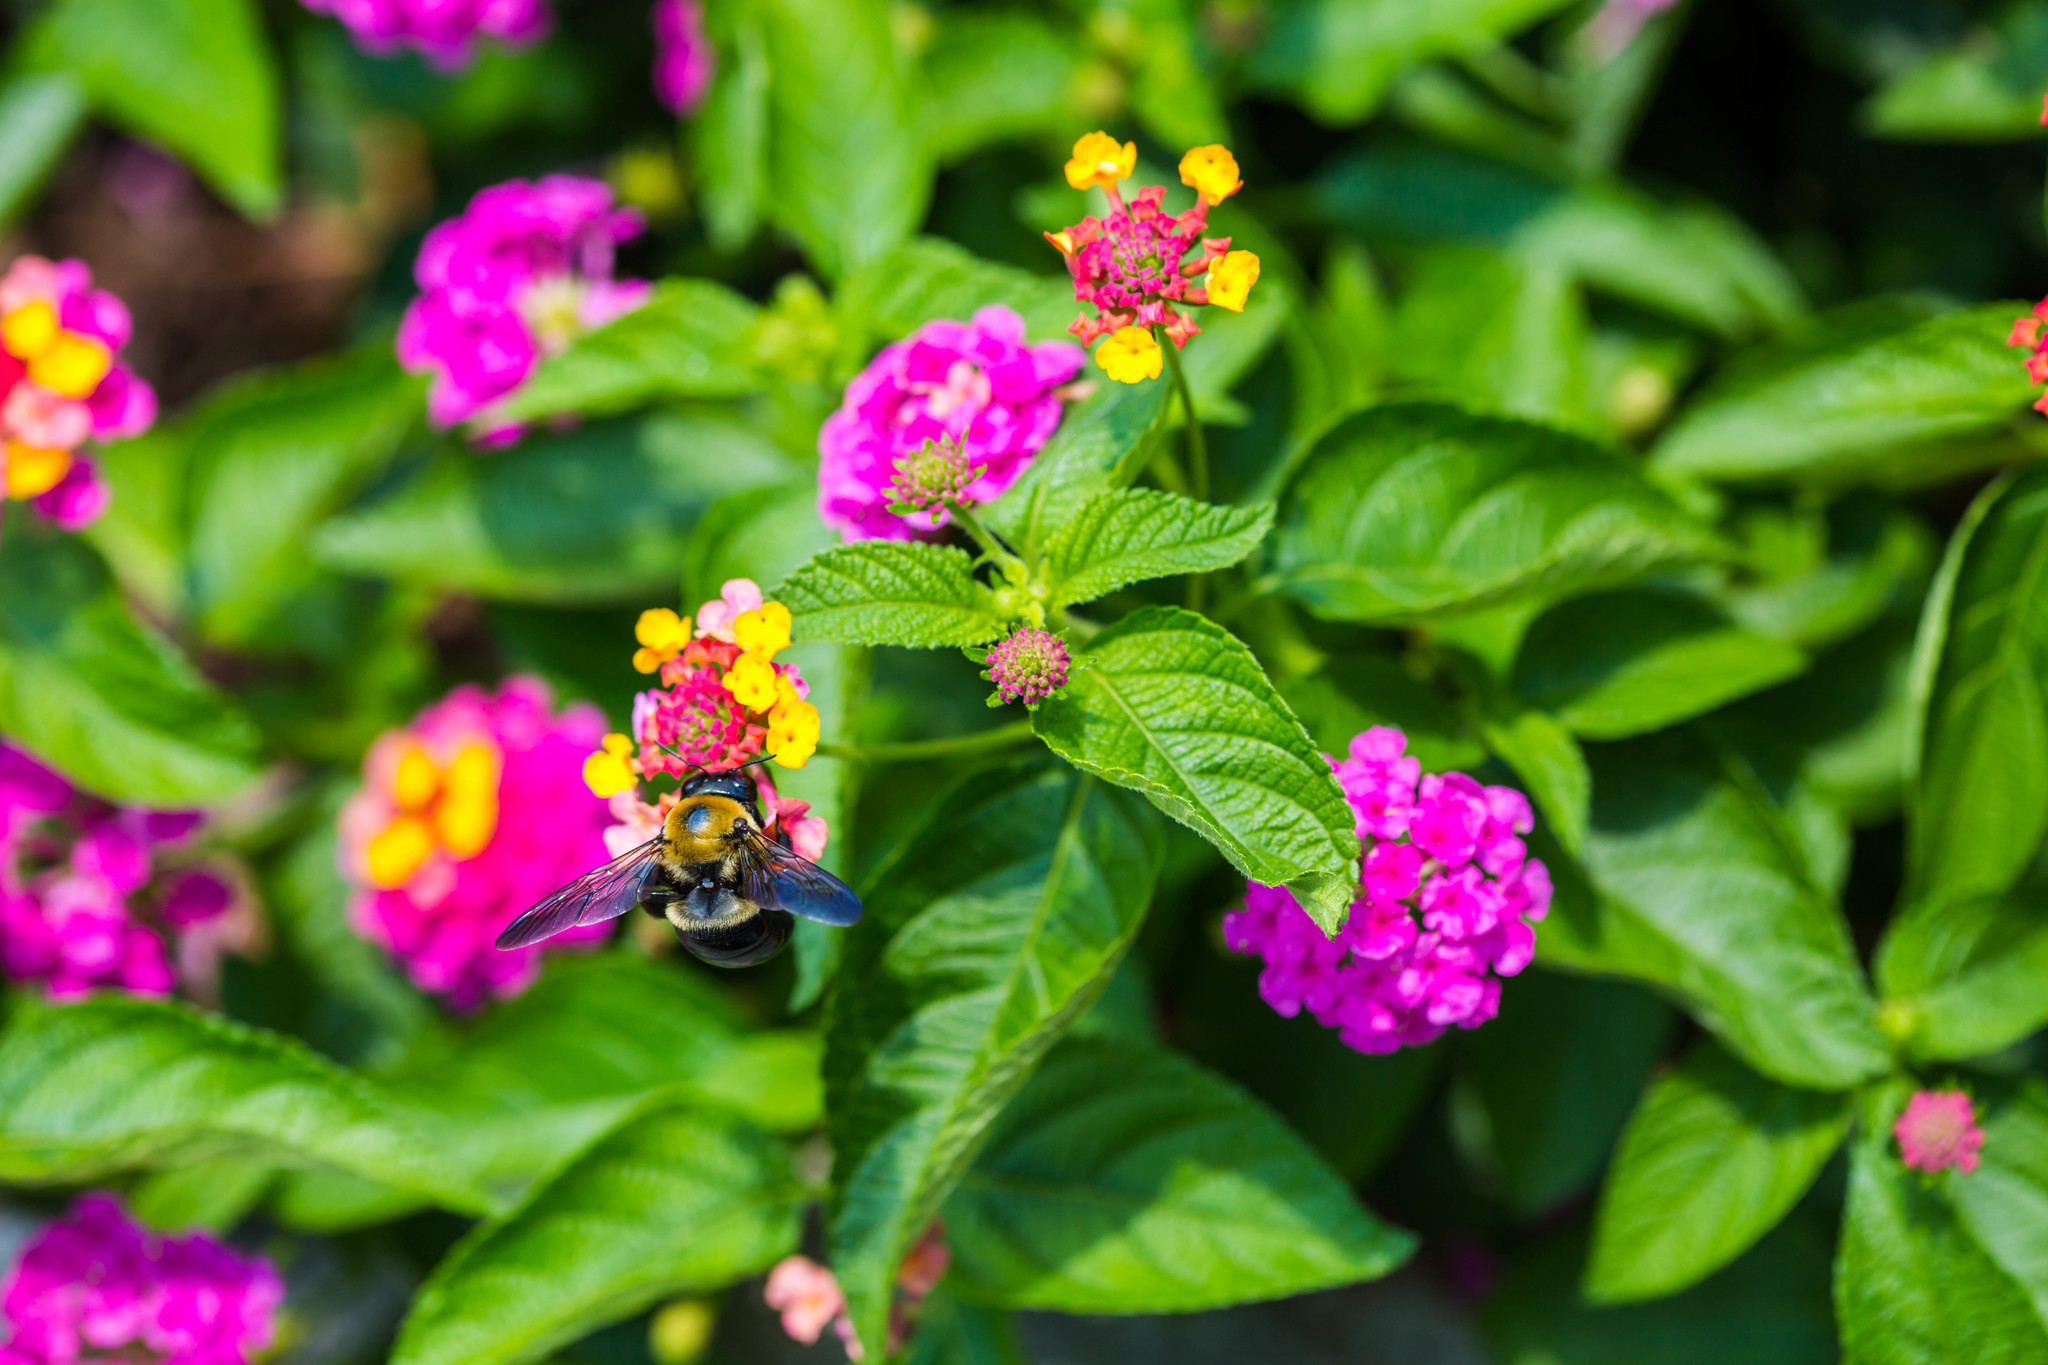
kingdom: Animalia
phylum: Arthropoda
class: Insecta
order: Hymenoptera
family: Apidae
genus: Xylocopa
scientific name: Xylocopa virginica
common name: Carpenter bee
